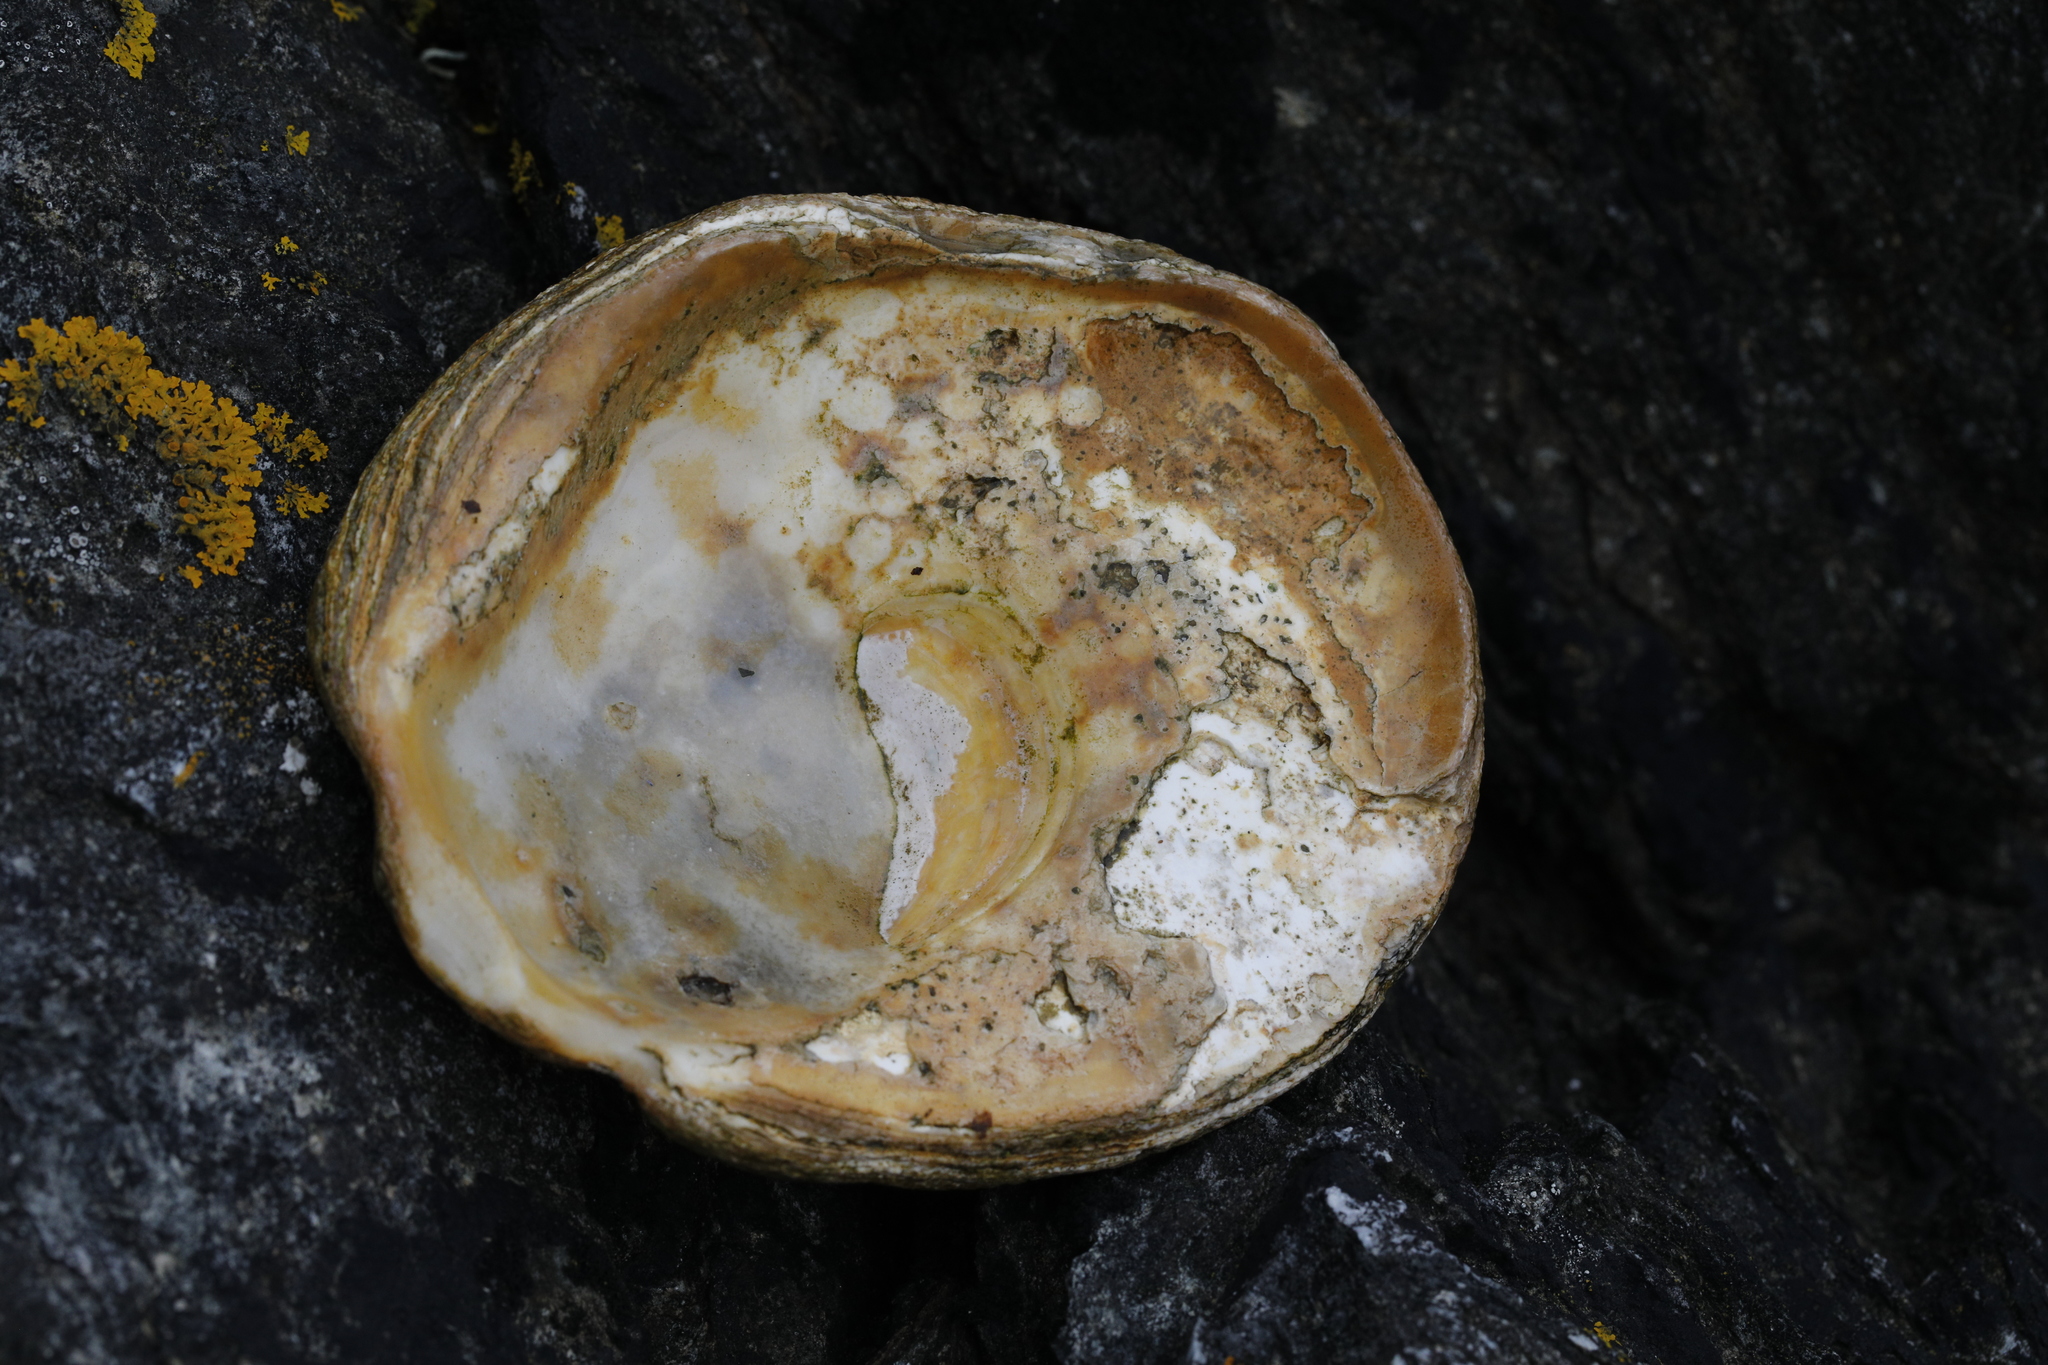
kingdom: Animalia
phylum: Mollusca
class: Bivalvia
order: Ostreida
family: Ostreidae
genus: Ostrea
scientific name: Ostrea edulis
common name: Flat oyster
